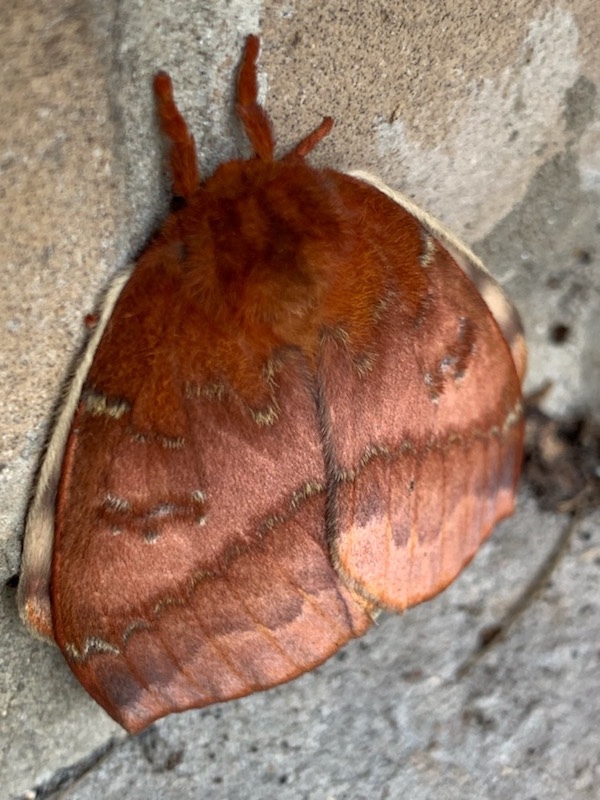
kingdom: Animalia
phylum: Arthropoda
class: Insecta
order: Lepidoptera
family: Saturniidae
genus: Automeris
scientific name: Automeris io
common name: Io moth
